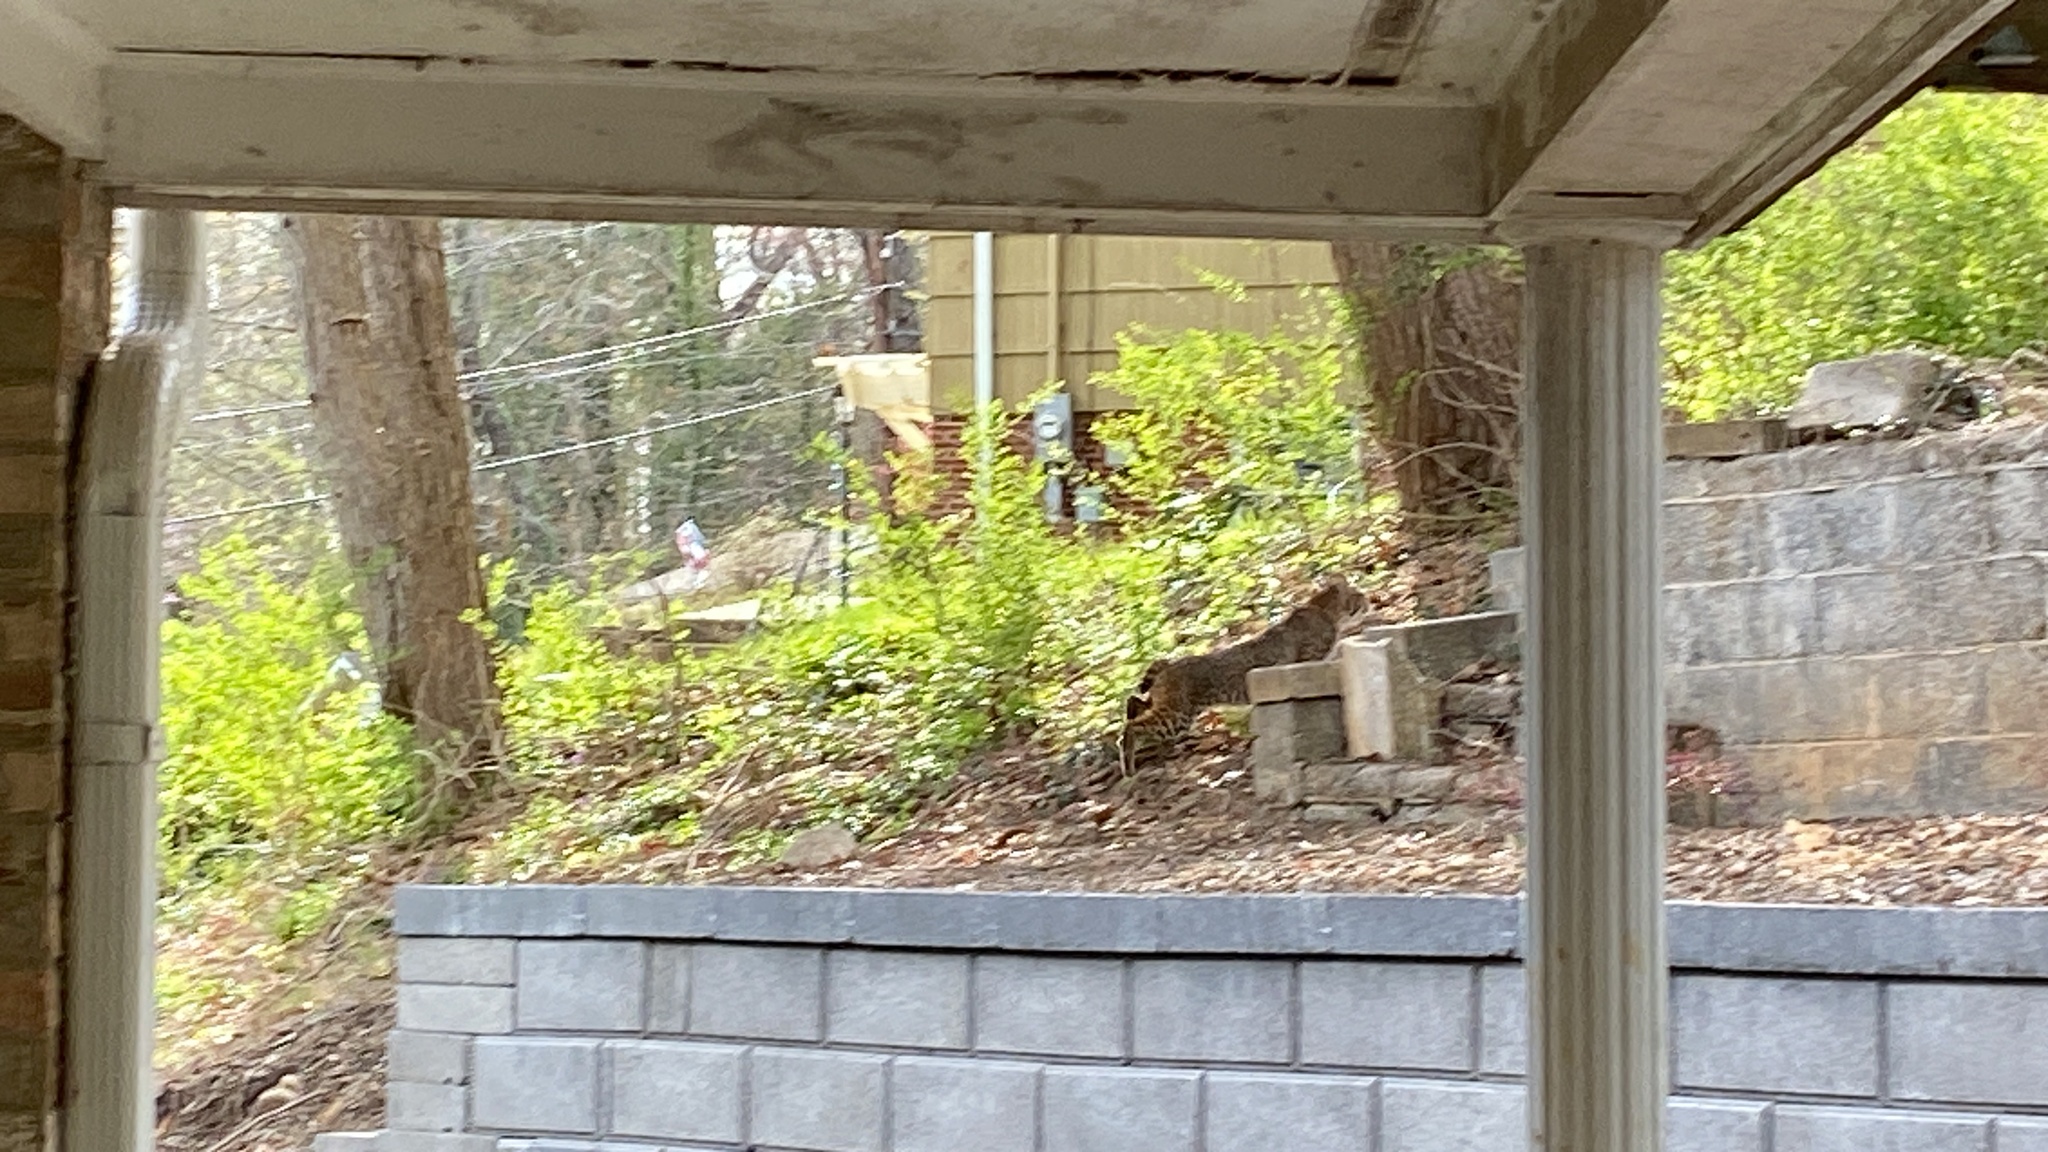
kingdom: Animalia
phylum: Chordata
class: Mammalia
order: Carnivora
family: Felidae
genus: Lynx
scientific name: Lynx rufus
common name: Bobcat
